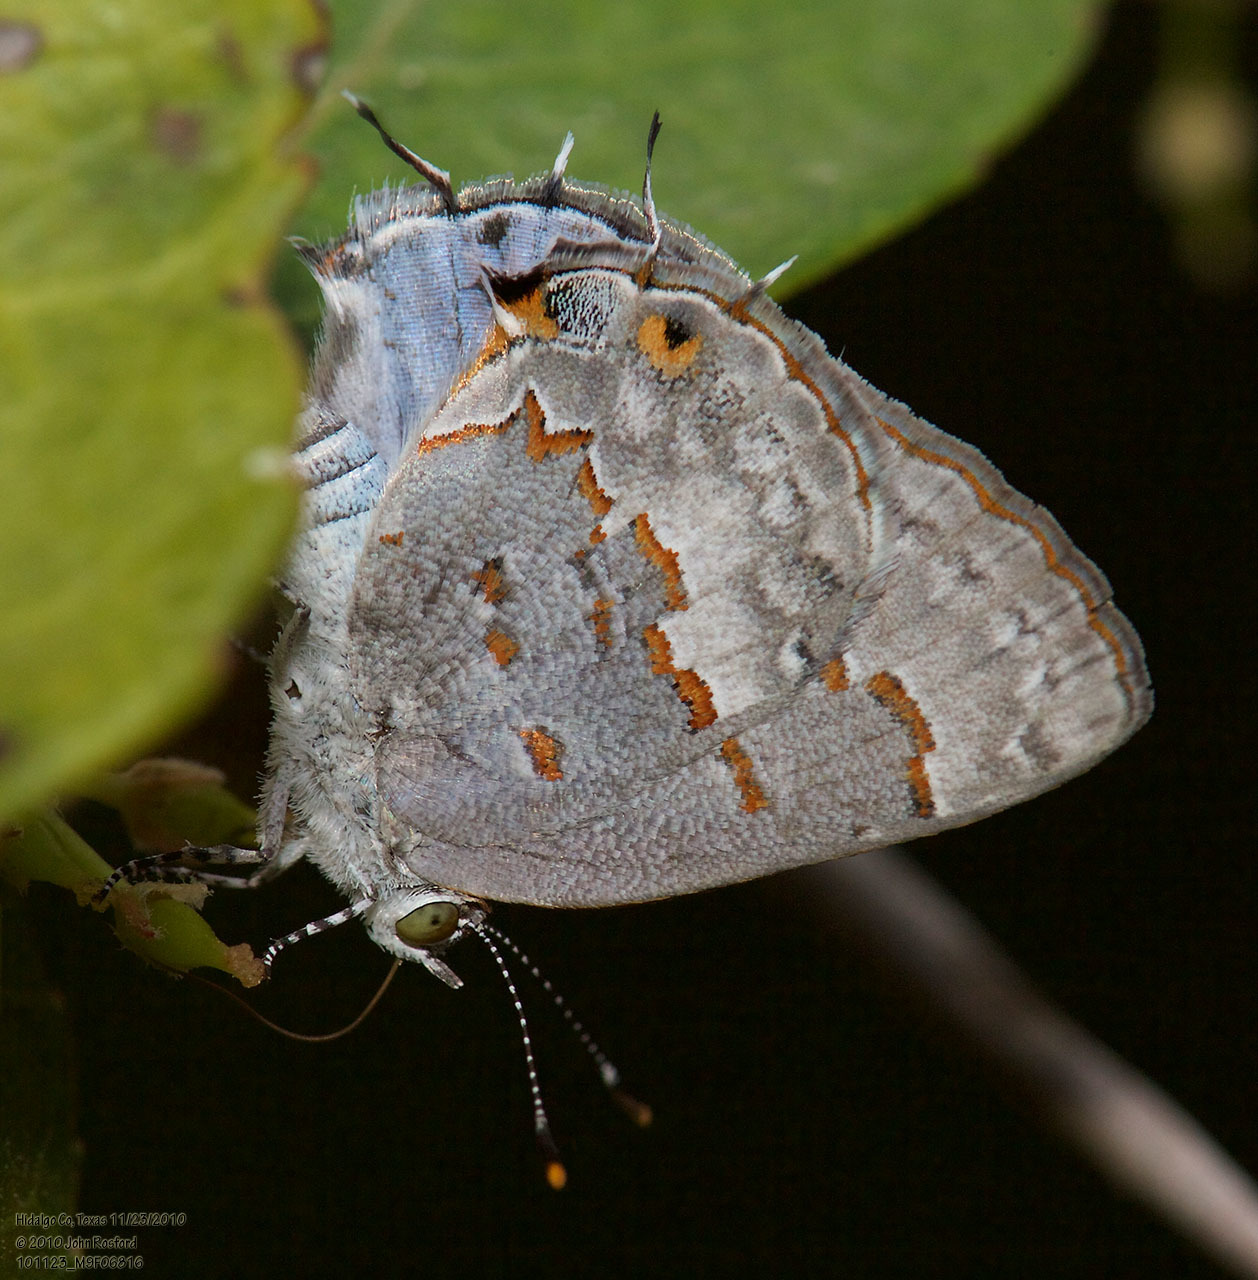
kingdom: Animalia
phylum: Arthropoda
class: Insecta
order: Lepidoptera
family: Lycaenidae
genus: Ministrymon
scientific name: Ministrymon clytie
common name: Clytie ministreak
